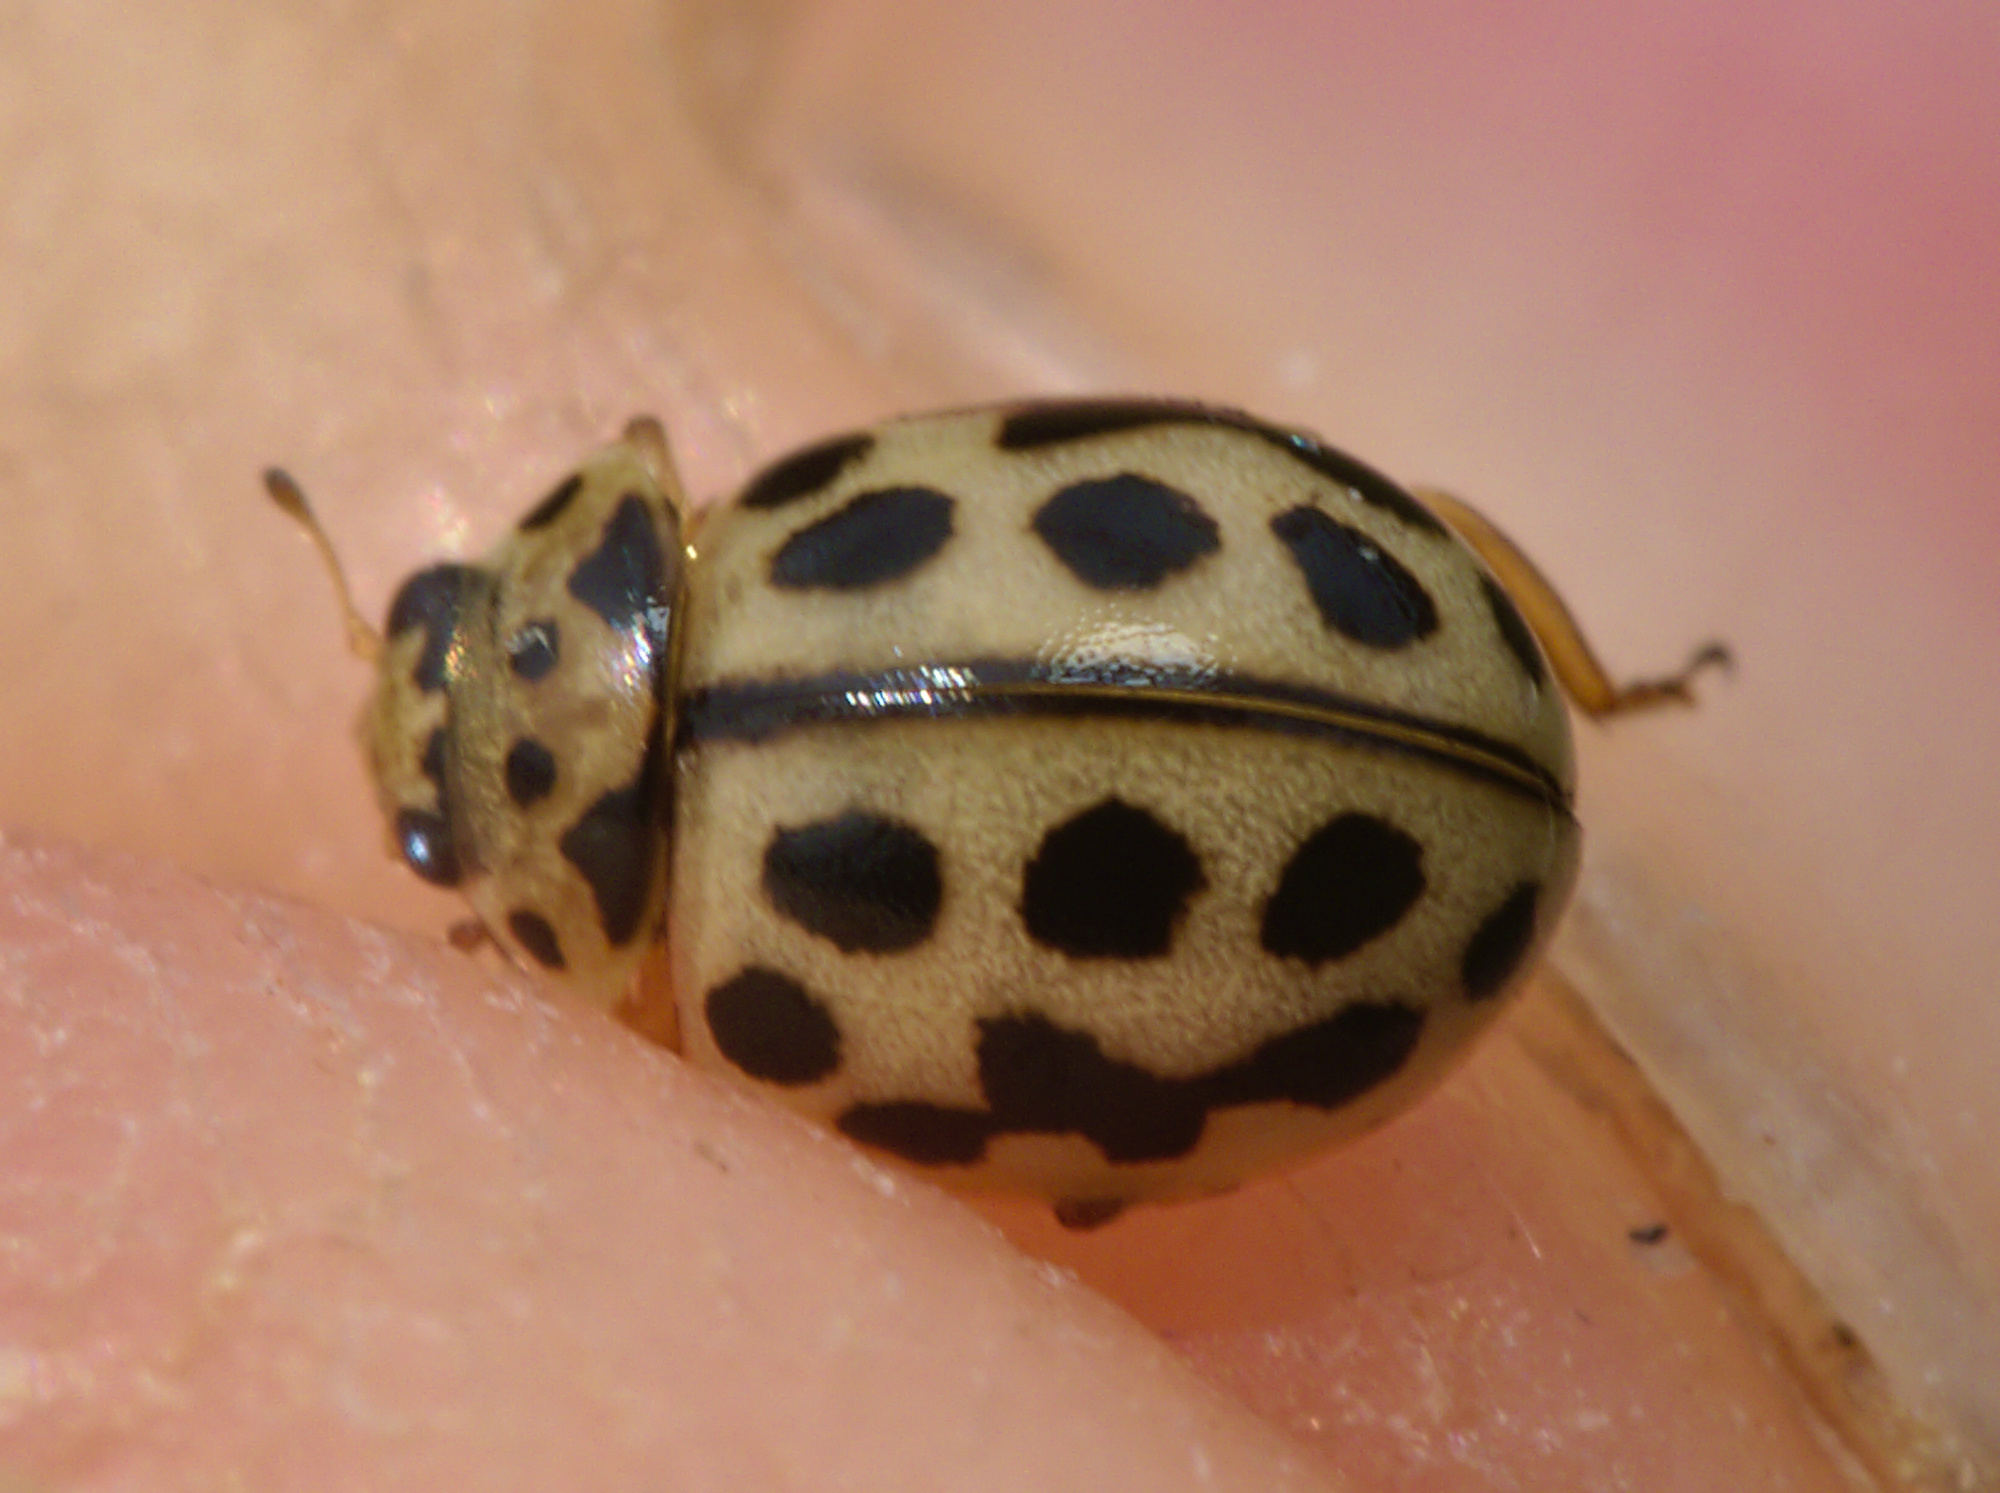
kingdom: Animalia
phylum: Arthropoda
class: Insecta
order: Coleoptera
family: Coccinellidae
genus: Tytthaspis
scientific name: Tytthaspis sedecimpunctata
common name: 16-spot ladybird
